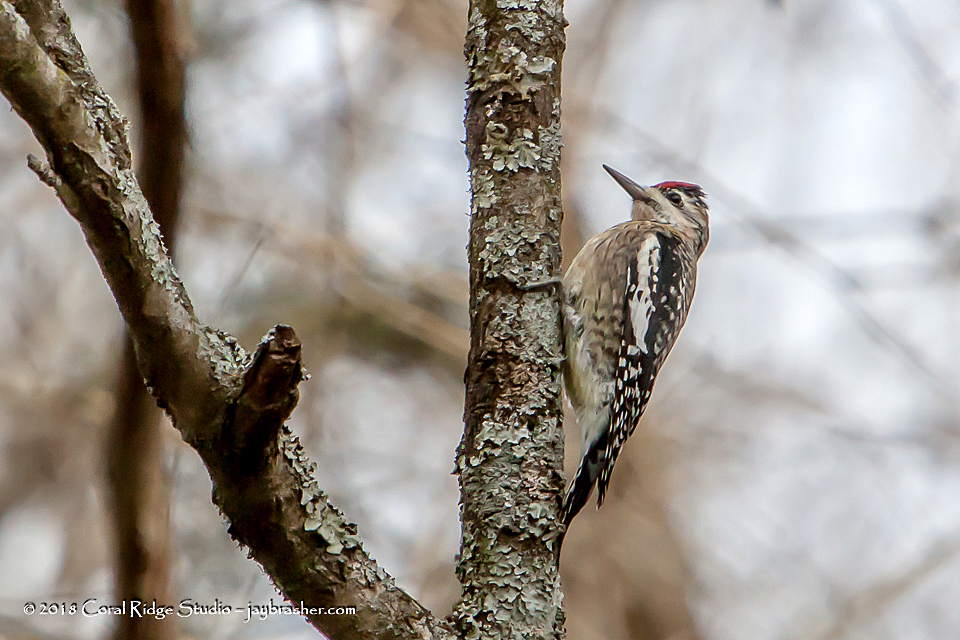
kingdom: Animalia
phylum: Chordata
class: Aves
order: Piciformes
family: Picidae
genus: Sphyrapicus
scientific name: Sphyrapicus varius
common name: Yellow-bellied sapsucker
